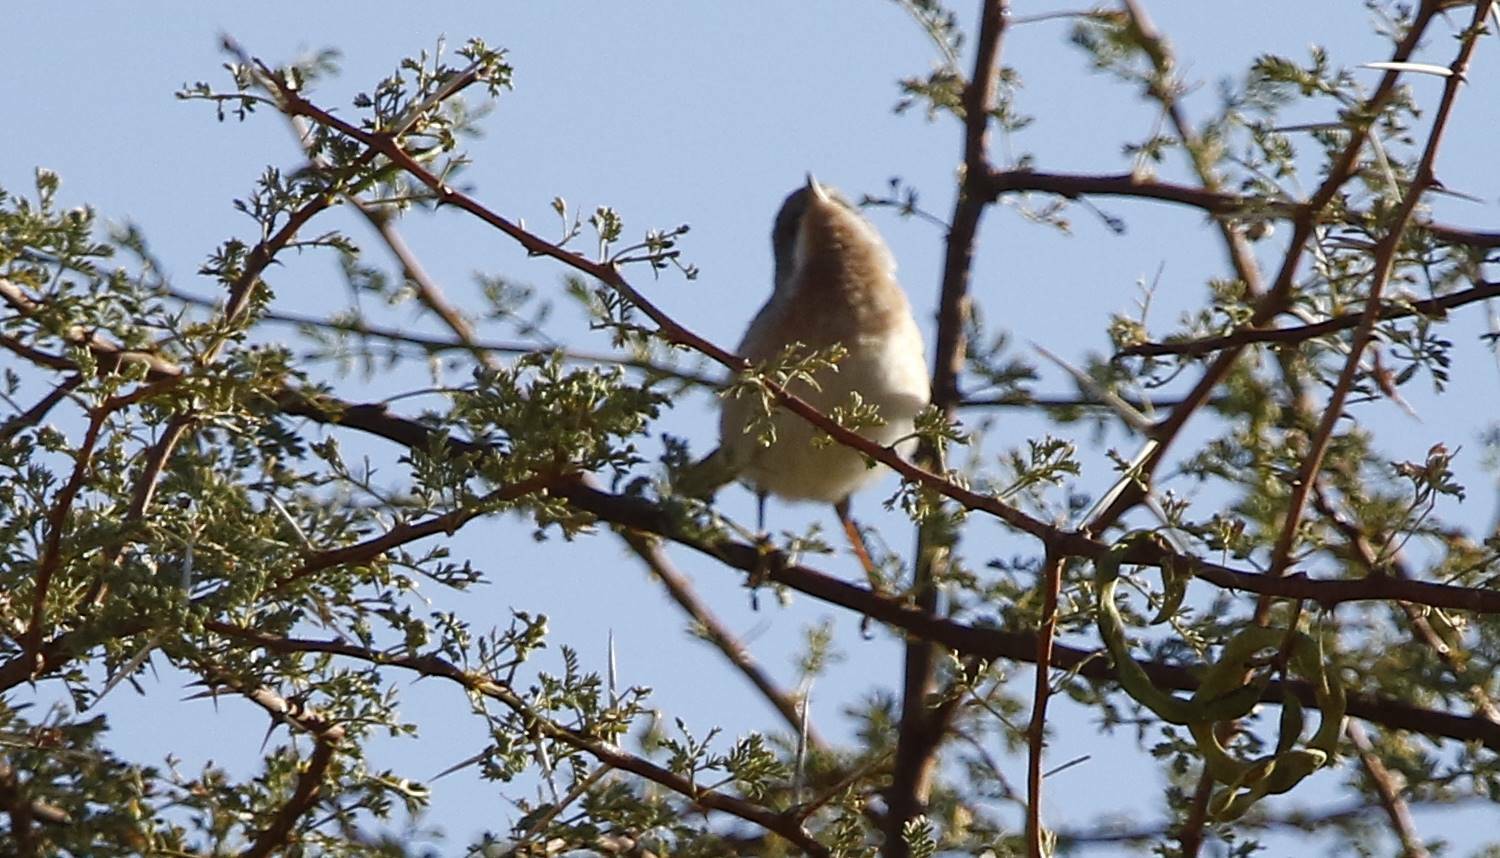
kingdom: Animalia
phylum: Chordata
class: Aves
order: Passeriformes
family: Sylviidae
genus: Curruca
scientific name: Curruca subalpina
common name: Moltoni's warbler
